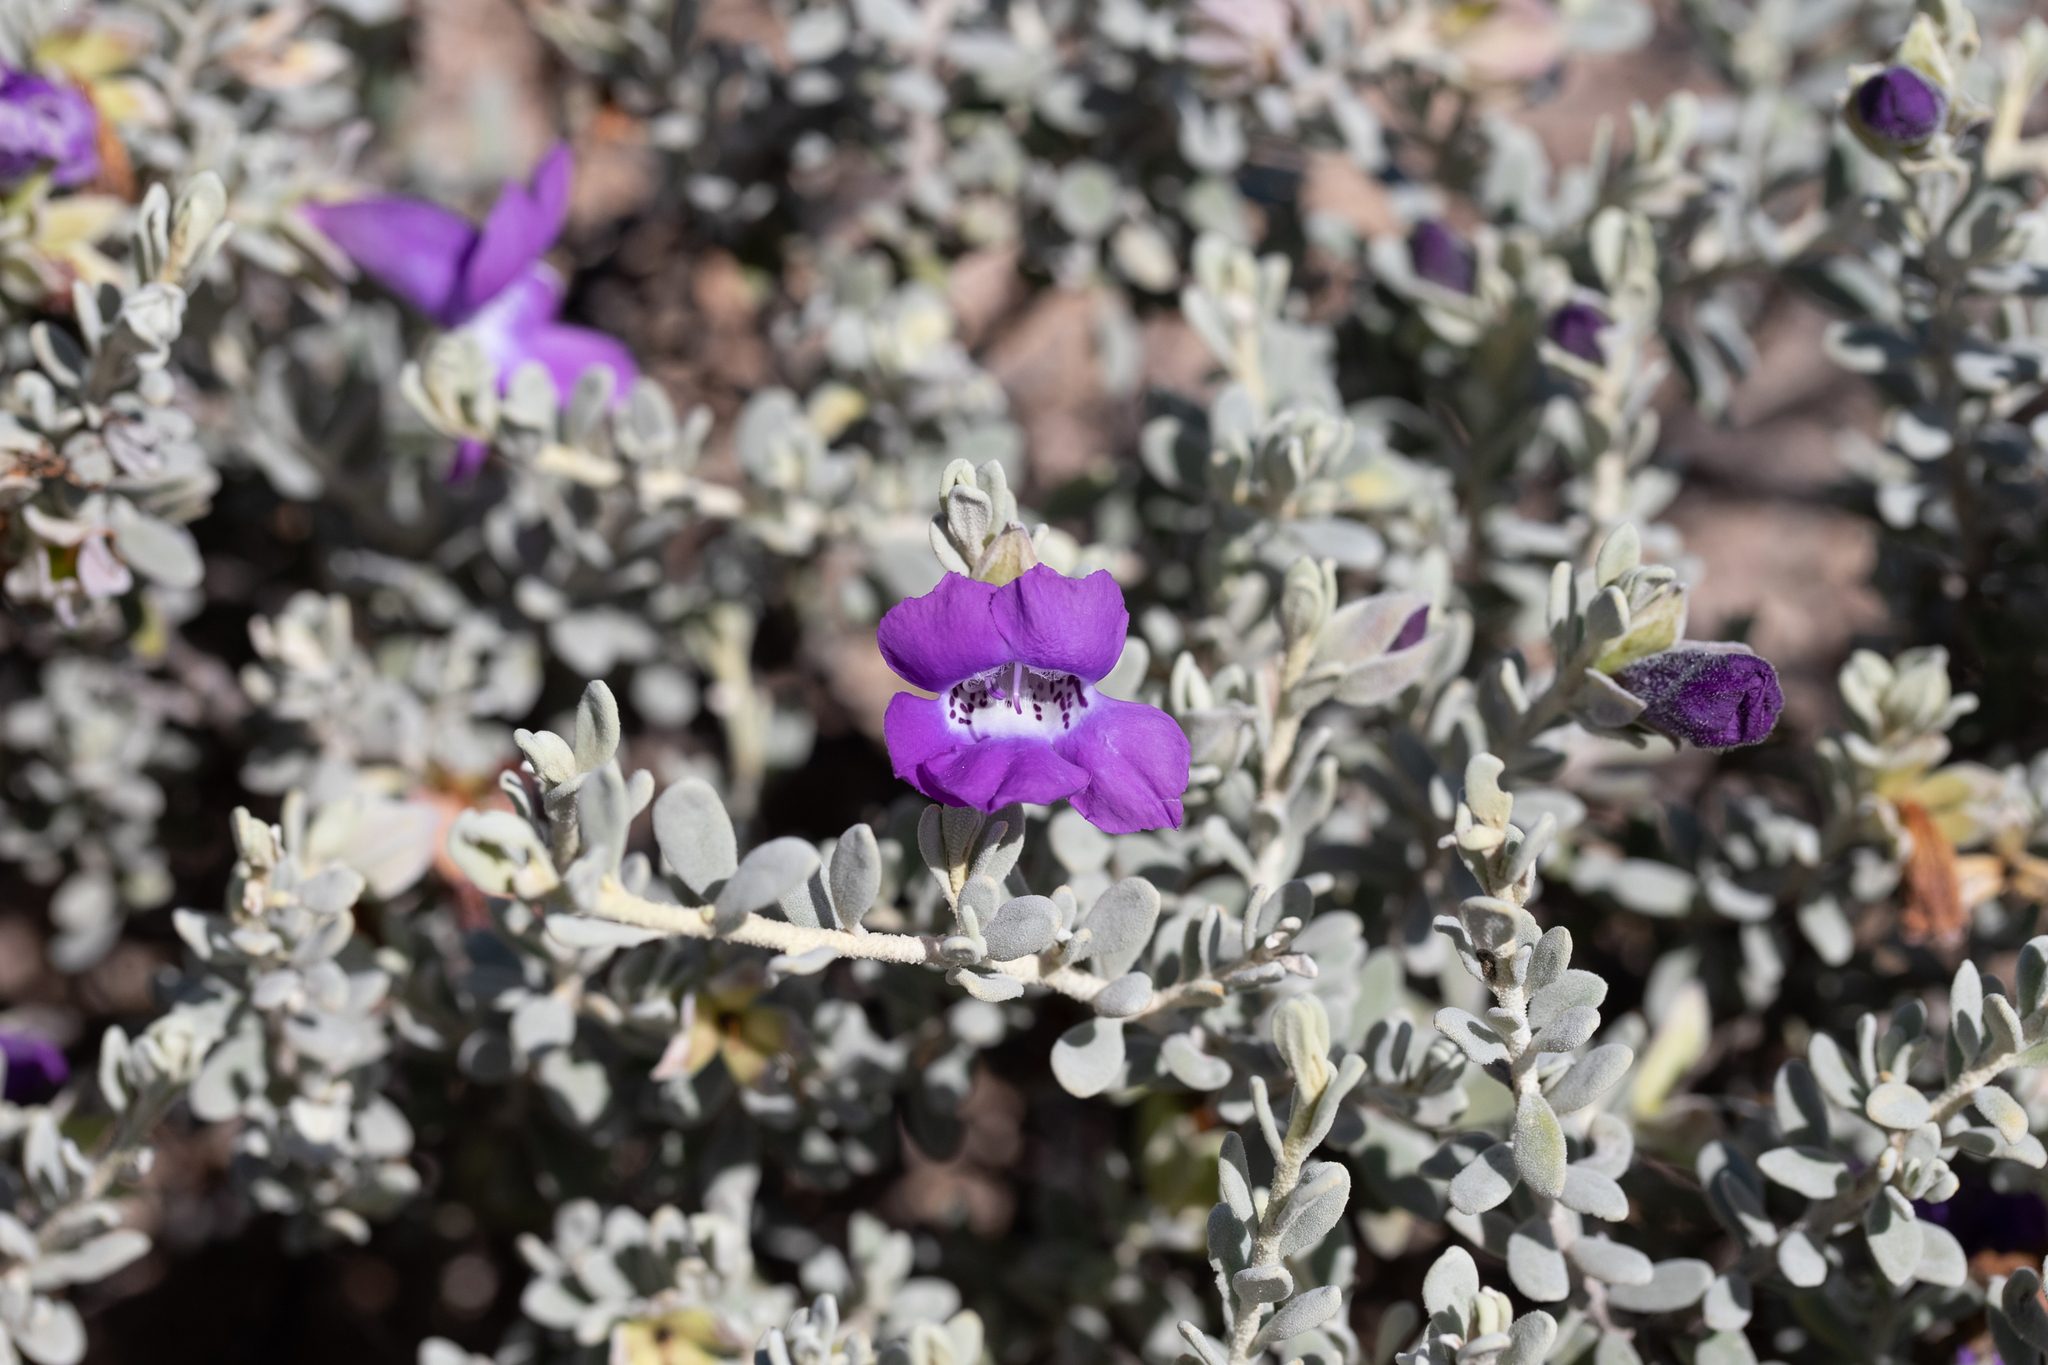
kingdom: Plantae
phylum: Tracheophyta
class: Magnoliopsida
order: Lamiales
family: Scrophulariaceae
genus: Eremophila
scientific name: Eremophila cordatisepala
